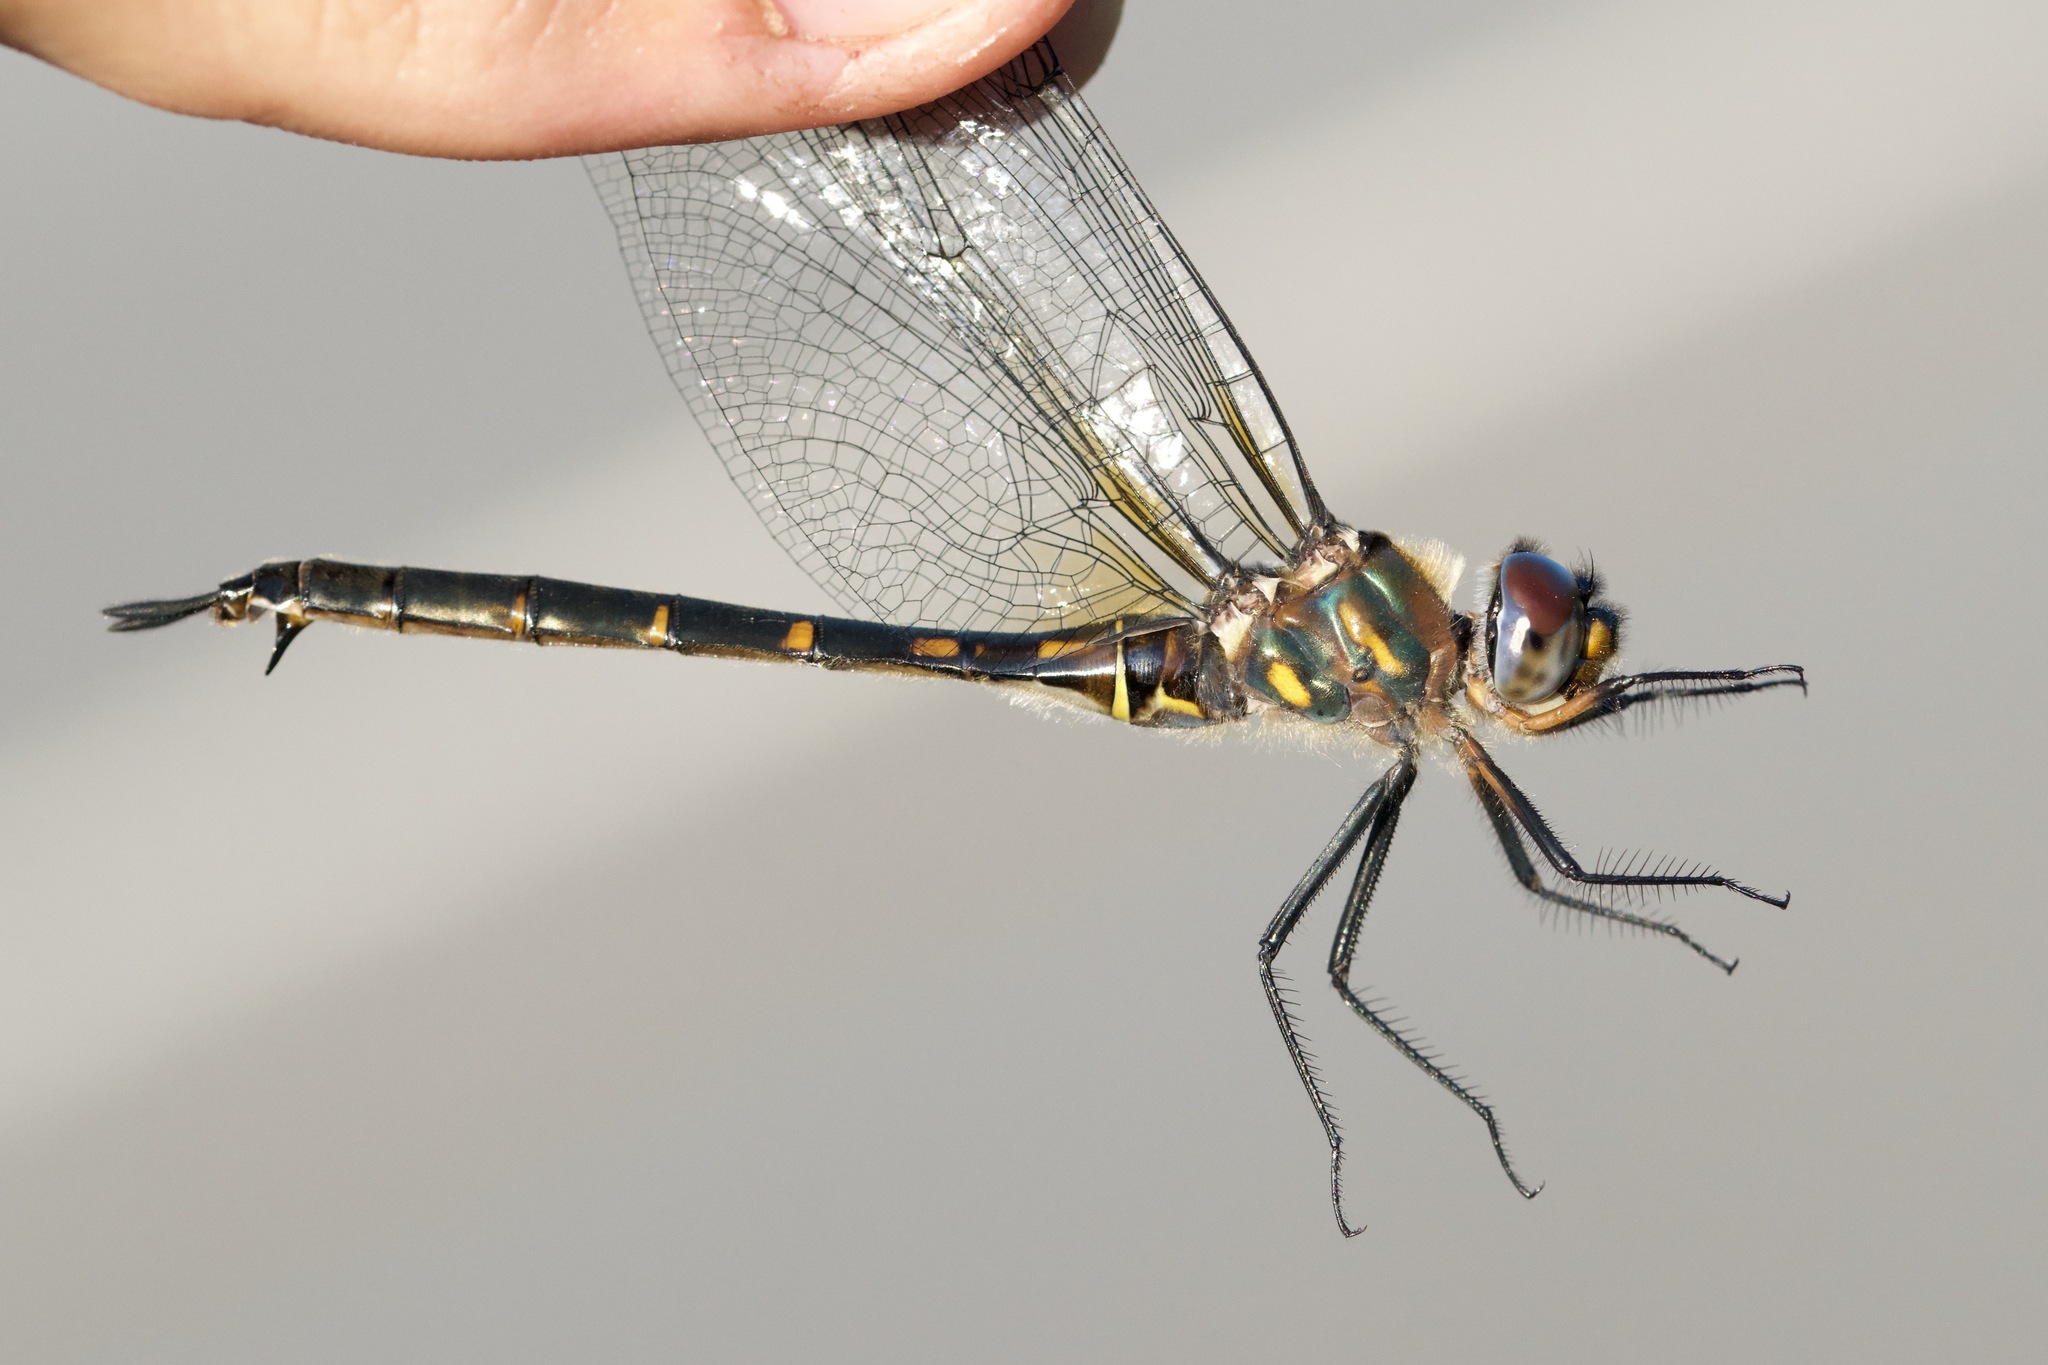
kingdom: Animalia
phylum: Arthropoda
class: Insecta
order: Odonata
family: Corduliidae
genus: Somatochlora
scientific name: Somatochlora williamsoni
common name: Williamson's emerald
